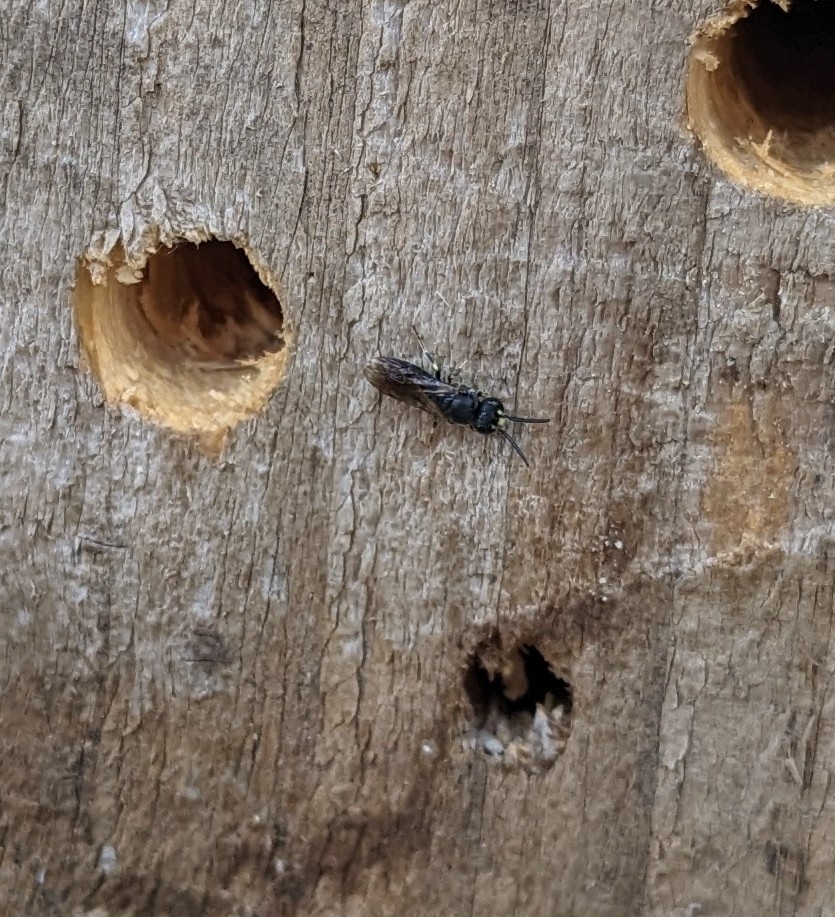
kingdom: Animalia
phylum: Arthropoda
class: Insecta
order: Hymenoptera
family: Colletidae
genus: Hylaeus
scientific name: Hylaeus communis
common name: Common yellow-face bee
